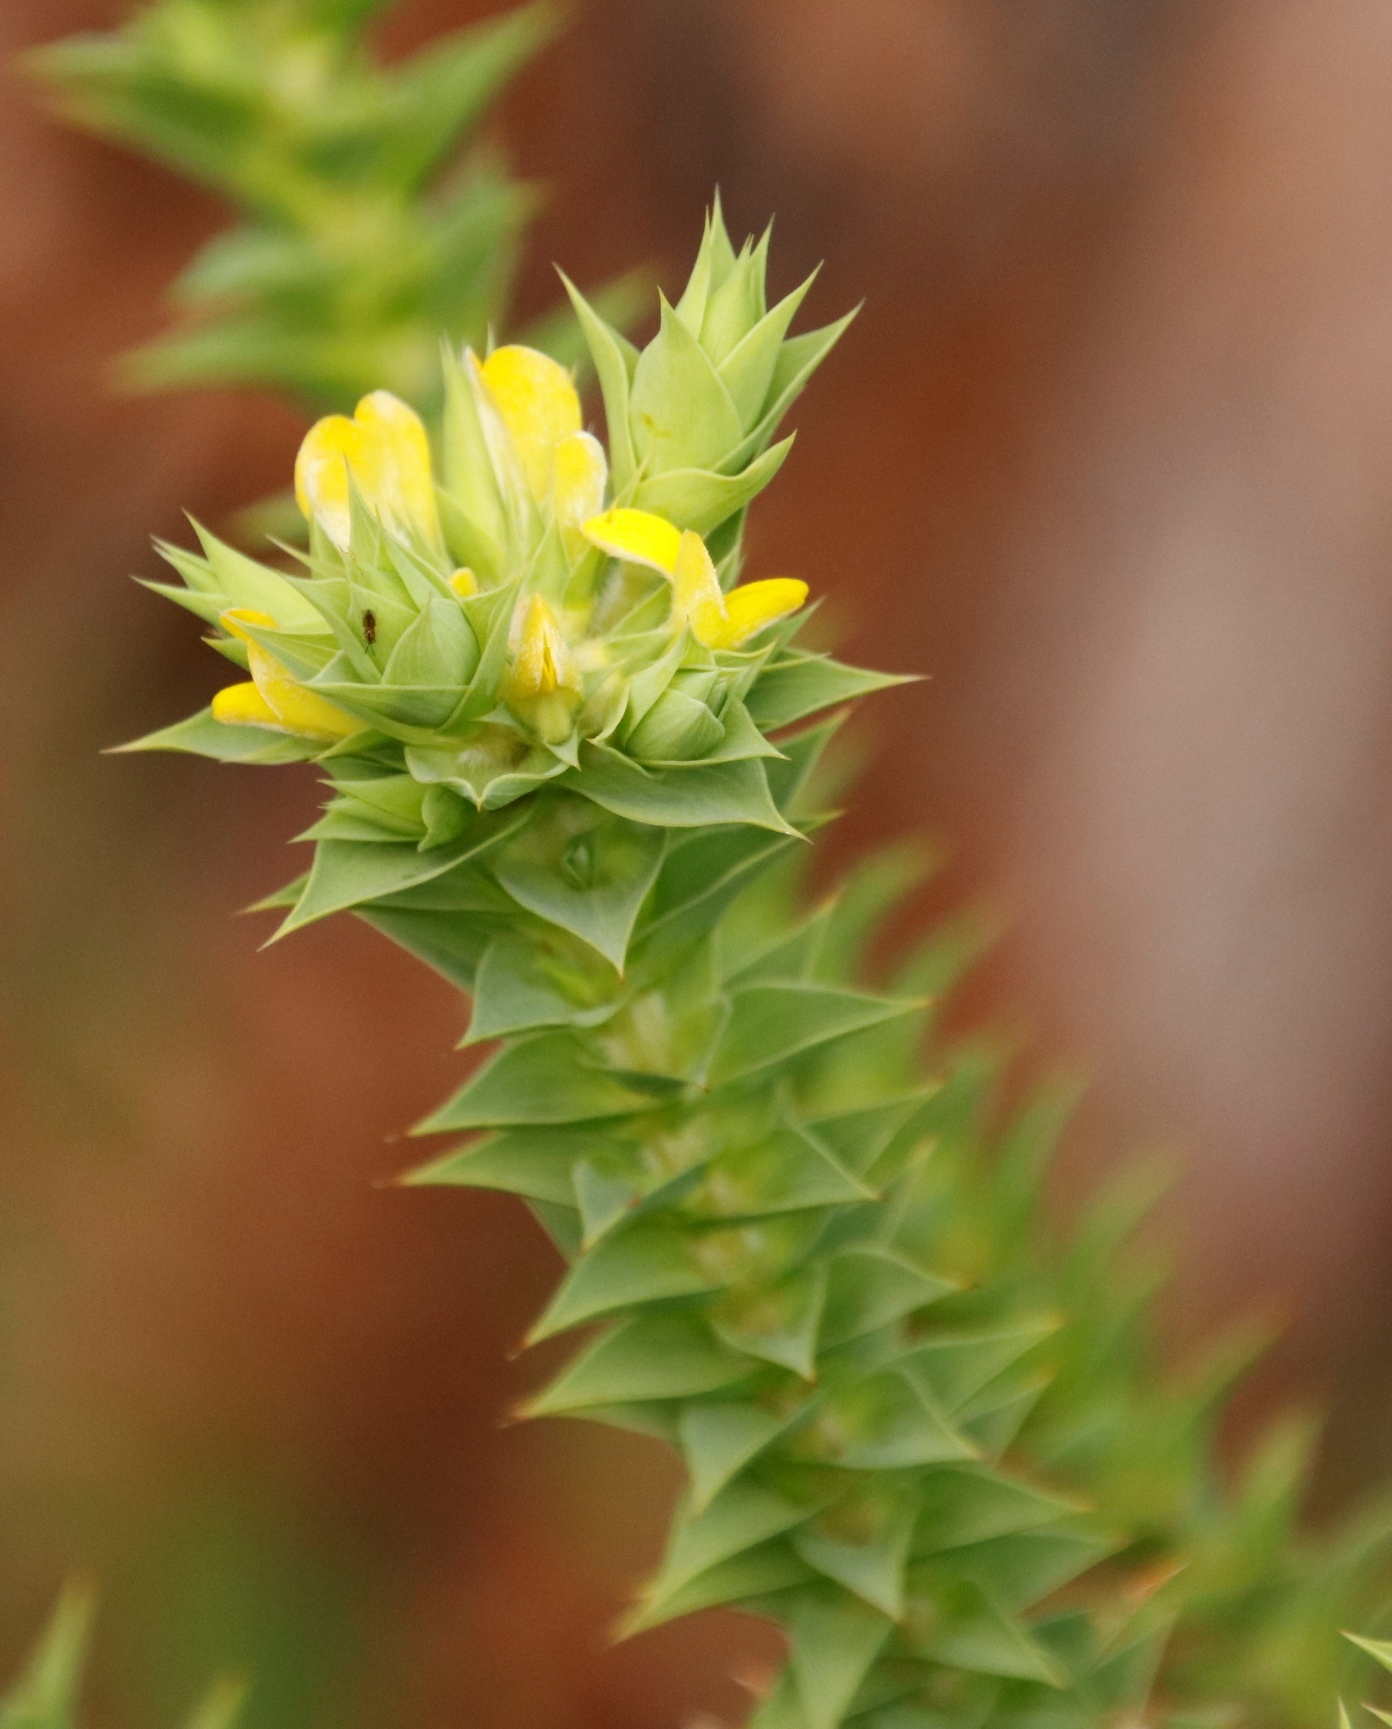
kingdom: Plantae
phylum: Tracheophyta
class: Magnoliopsida
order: Fabales
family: Fabaceae
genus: Aspalathus
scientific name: Aspalathus cordata
